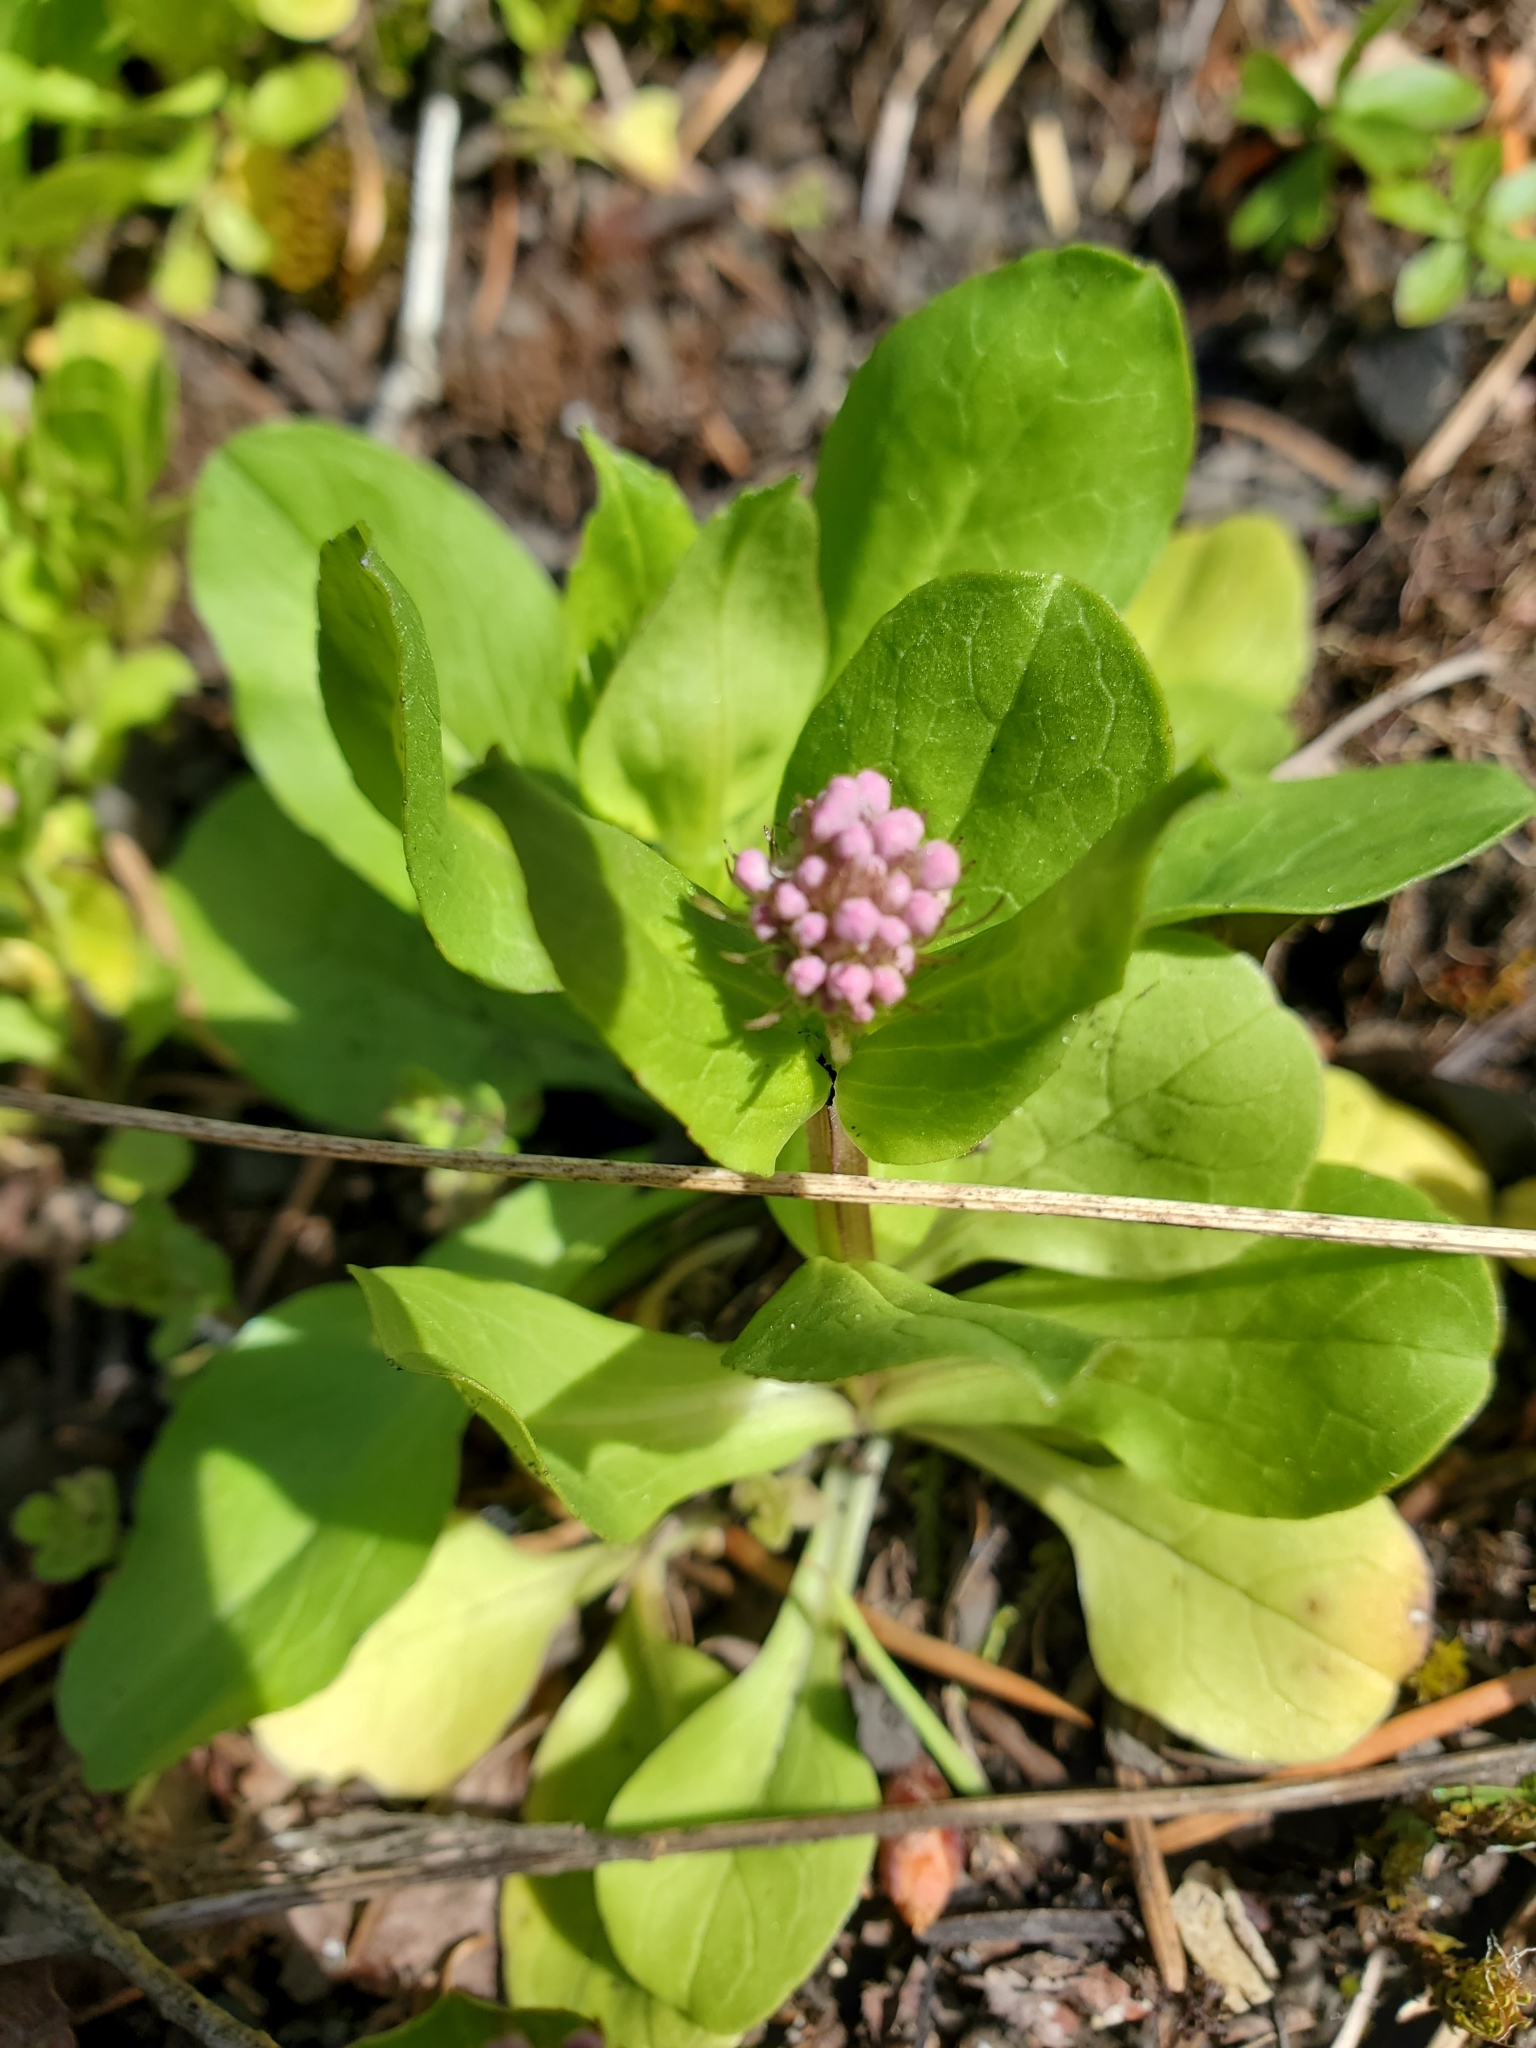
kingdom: Plantae
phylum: Tracheophyta
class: Magnoliopsida
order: Dipsacales
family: Caprifoliaceae
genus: Plectritis
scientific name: Plectritis congesta
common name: Pink plectritis
